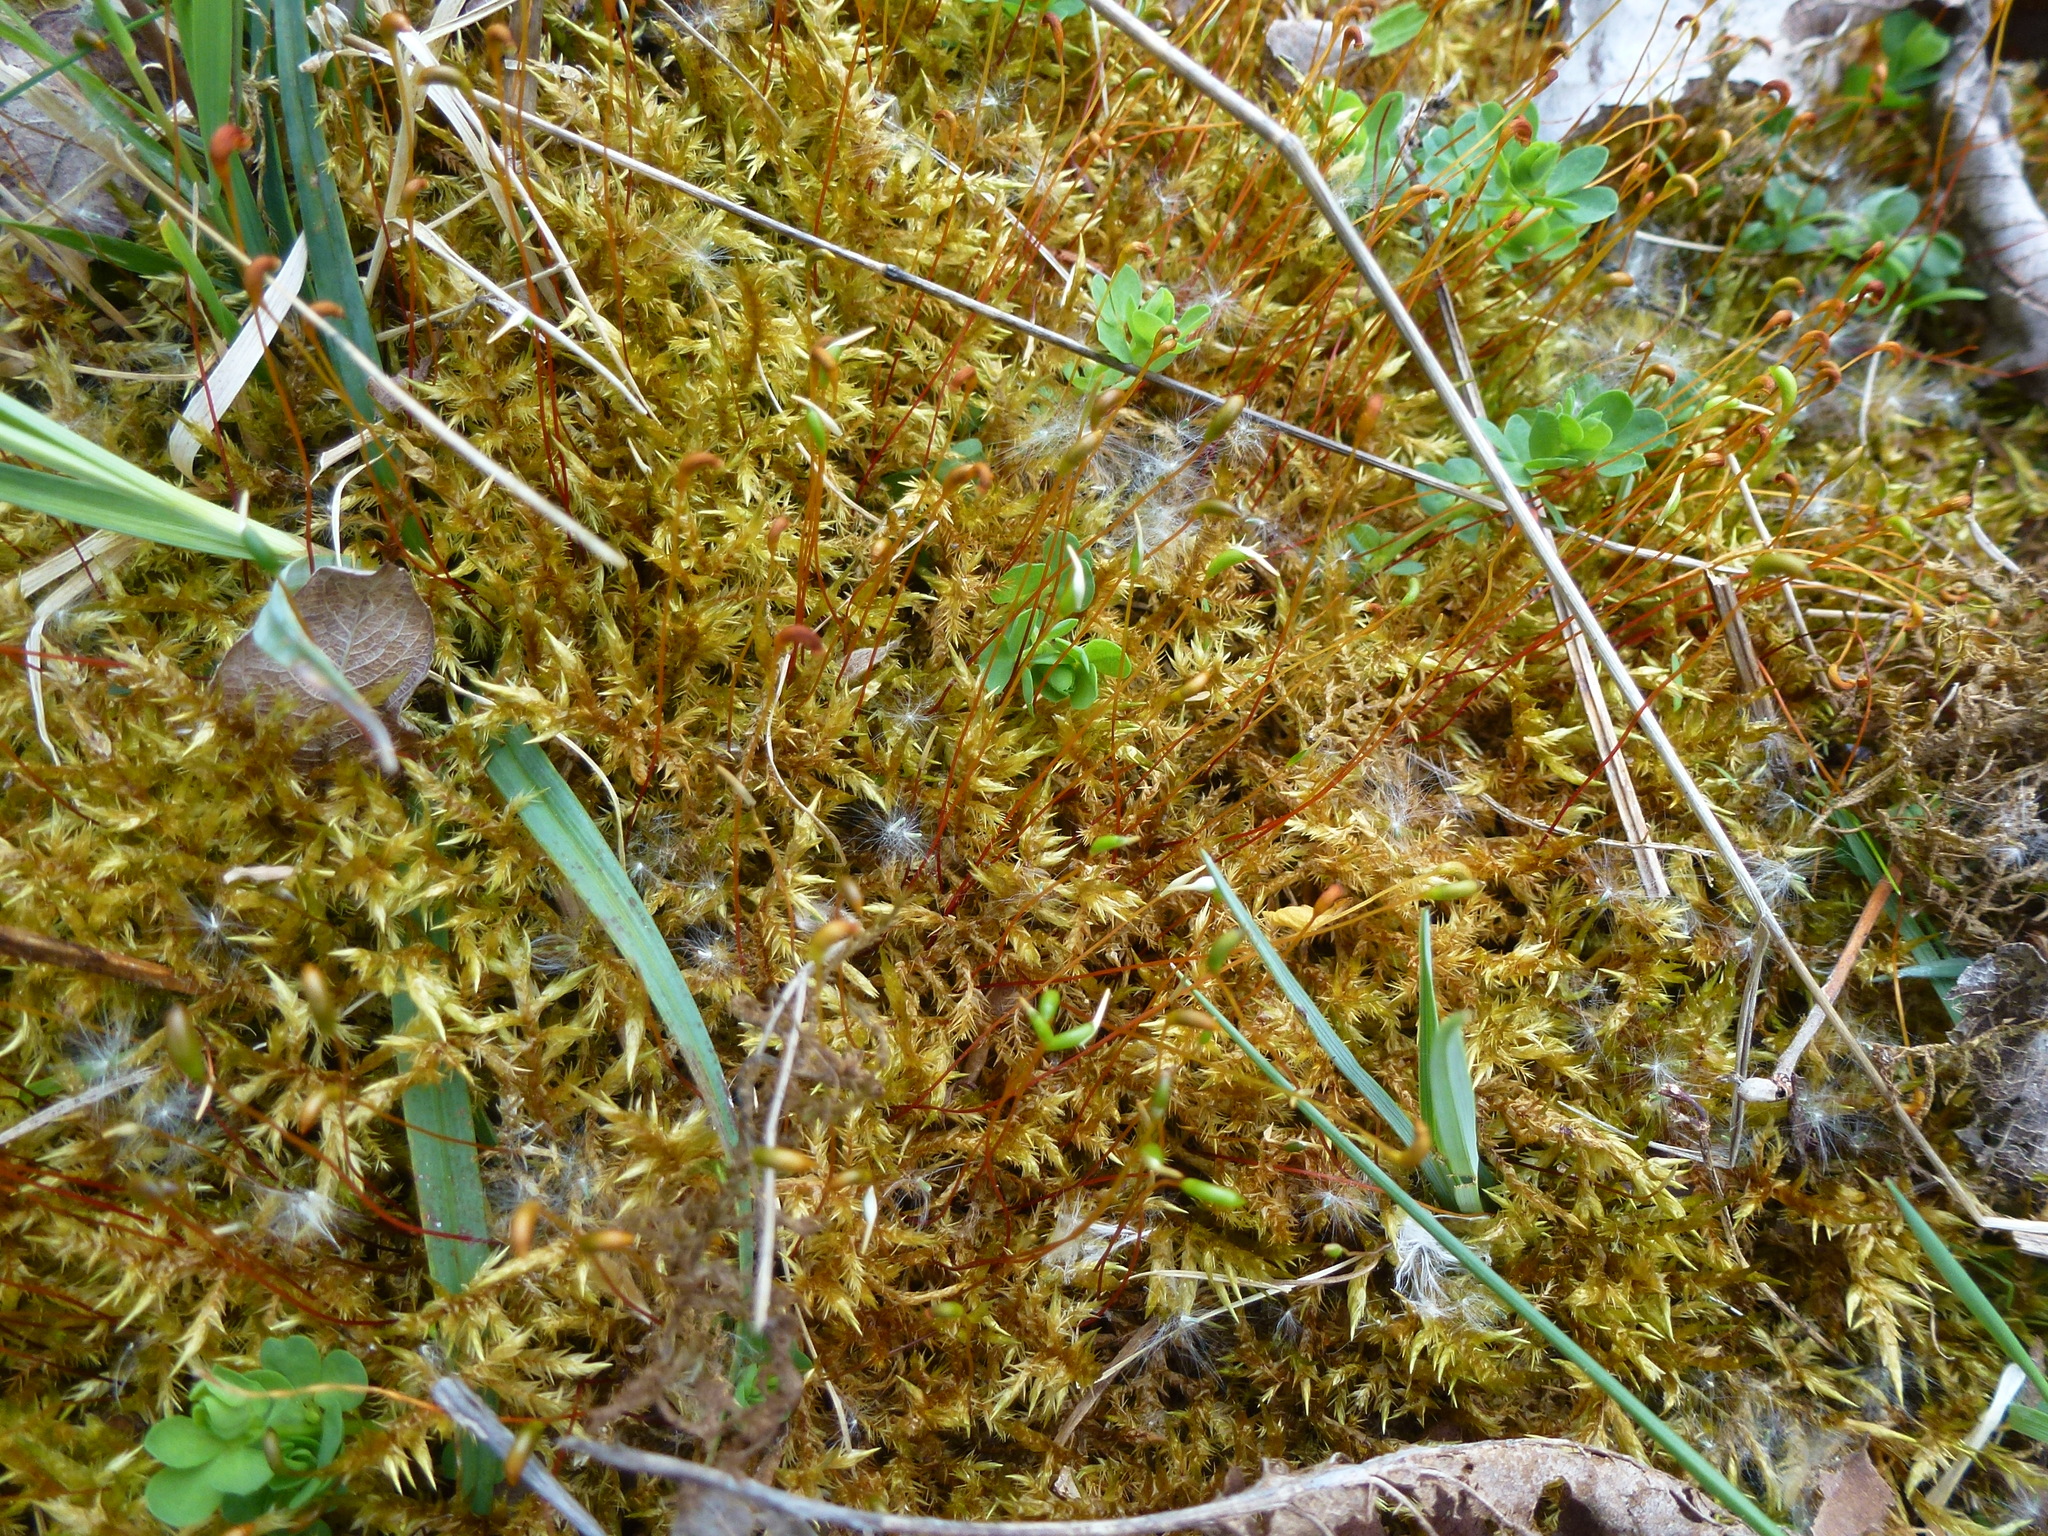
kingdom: Plantae
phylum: Bryophyta
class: Bryopsida
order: Hypnales
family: Pylaisiaceae
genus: Calliergonella
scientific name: Calliergonella cuspidata
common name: Common large wetland moss
